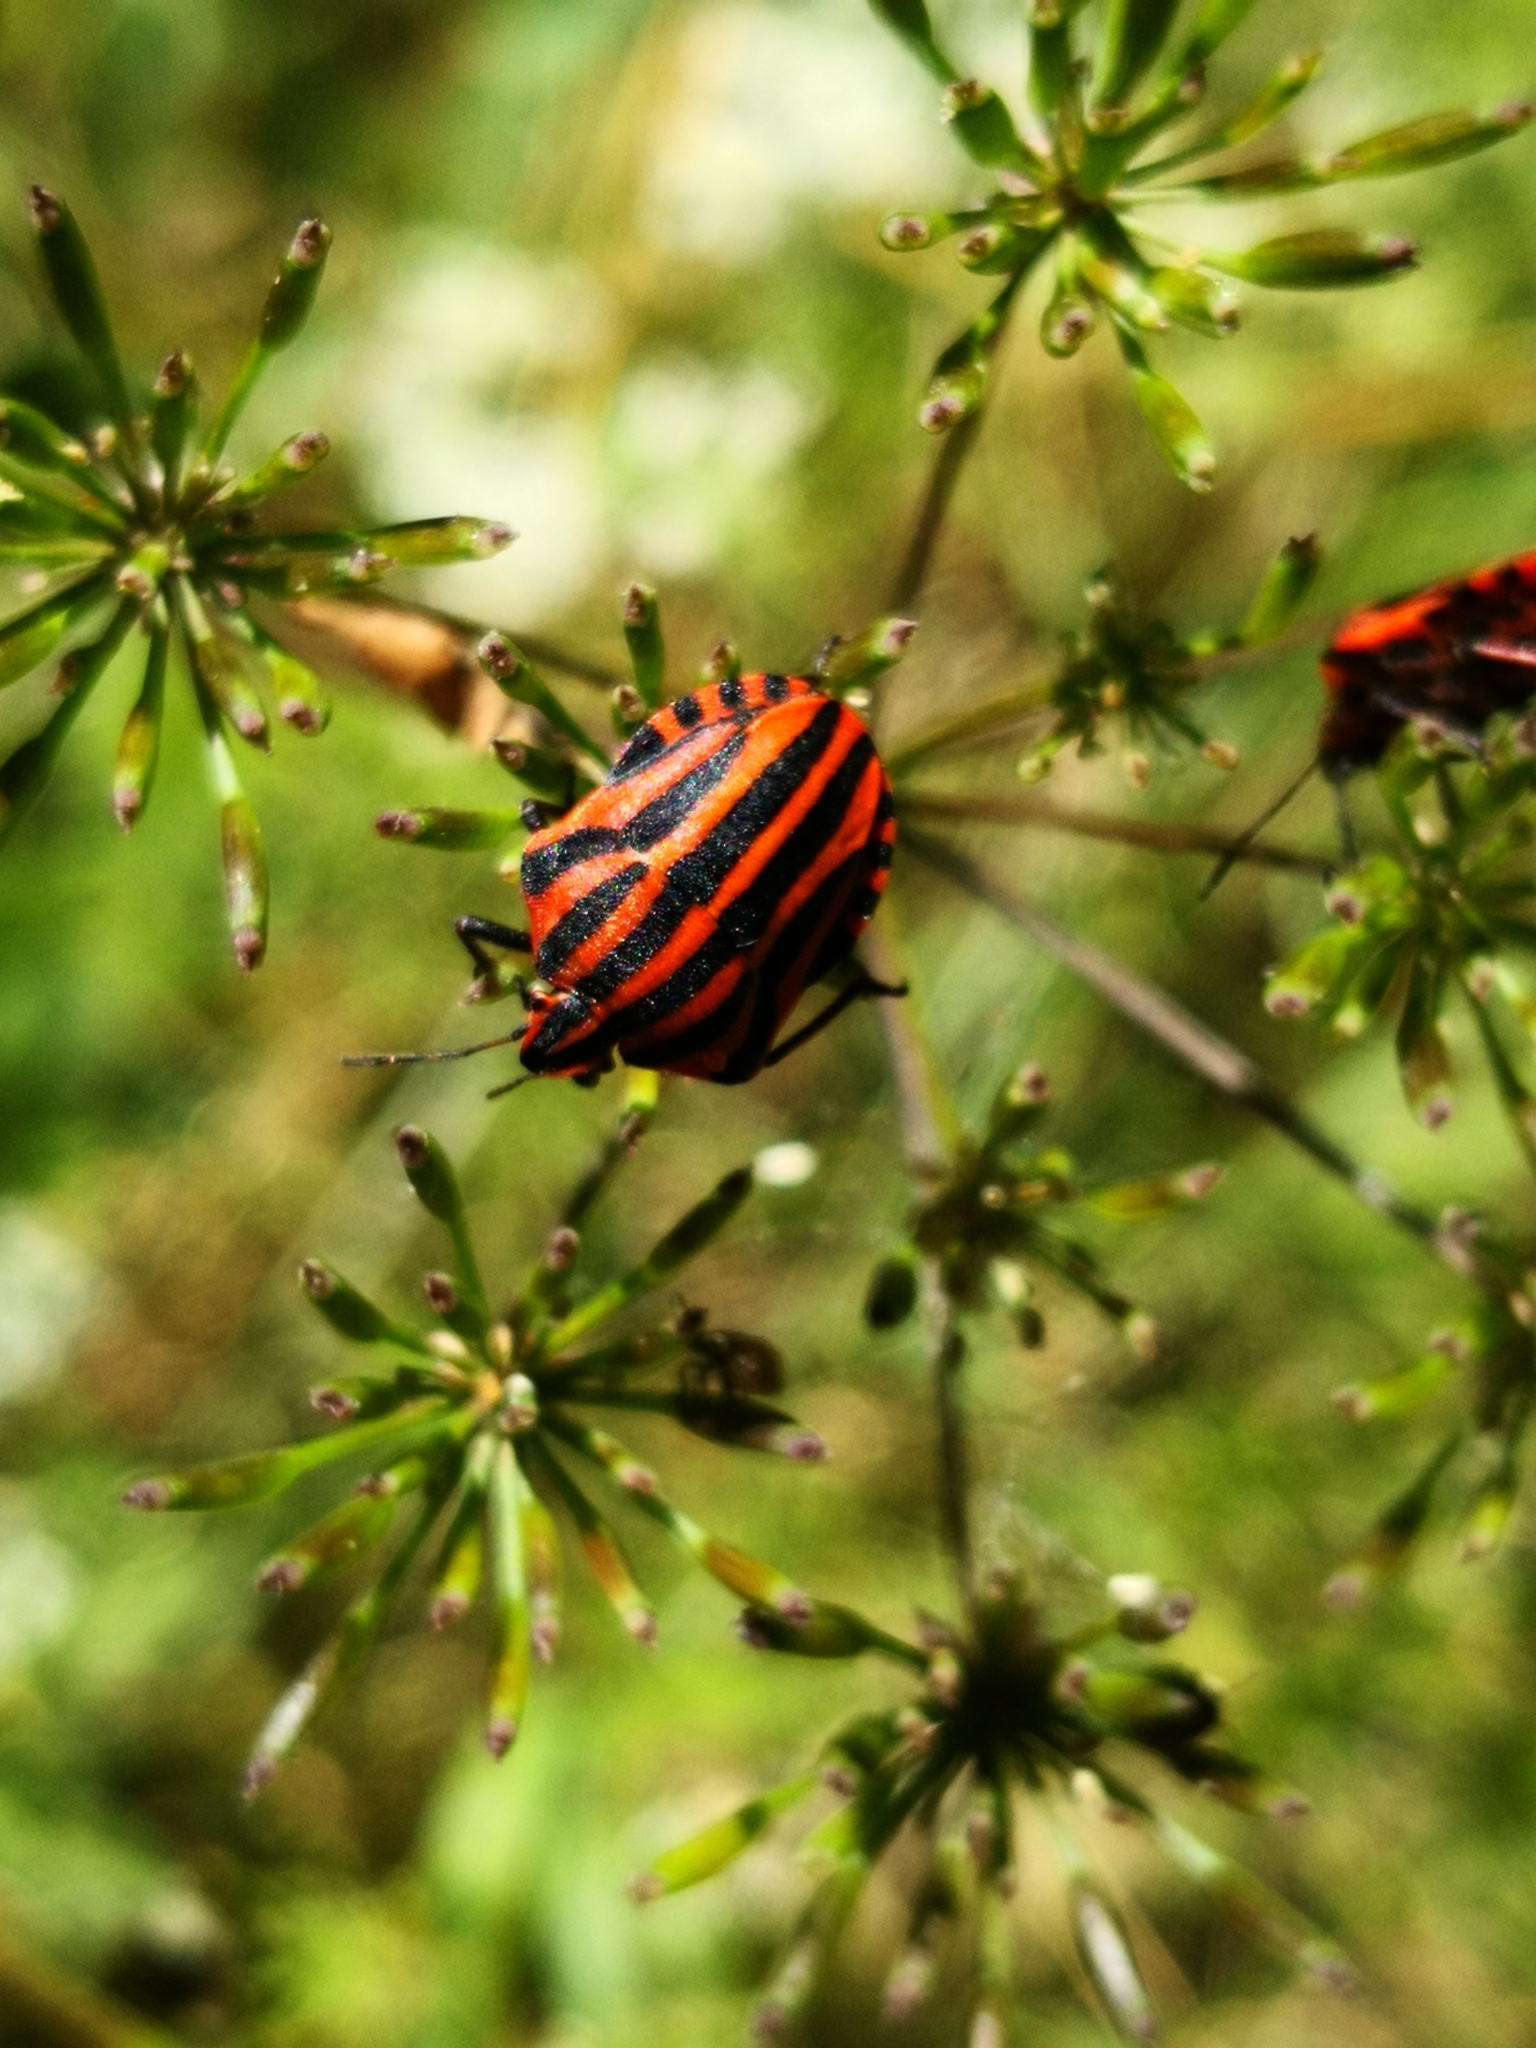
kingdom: Animalia
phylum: Arthropoda
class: Insecta
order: Hemiptera
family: Pentatomidae
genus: Graphosoma
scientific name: Graphosoma italicum
